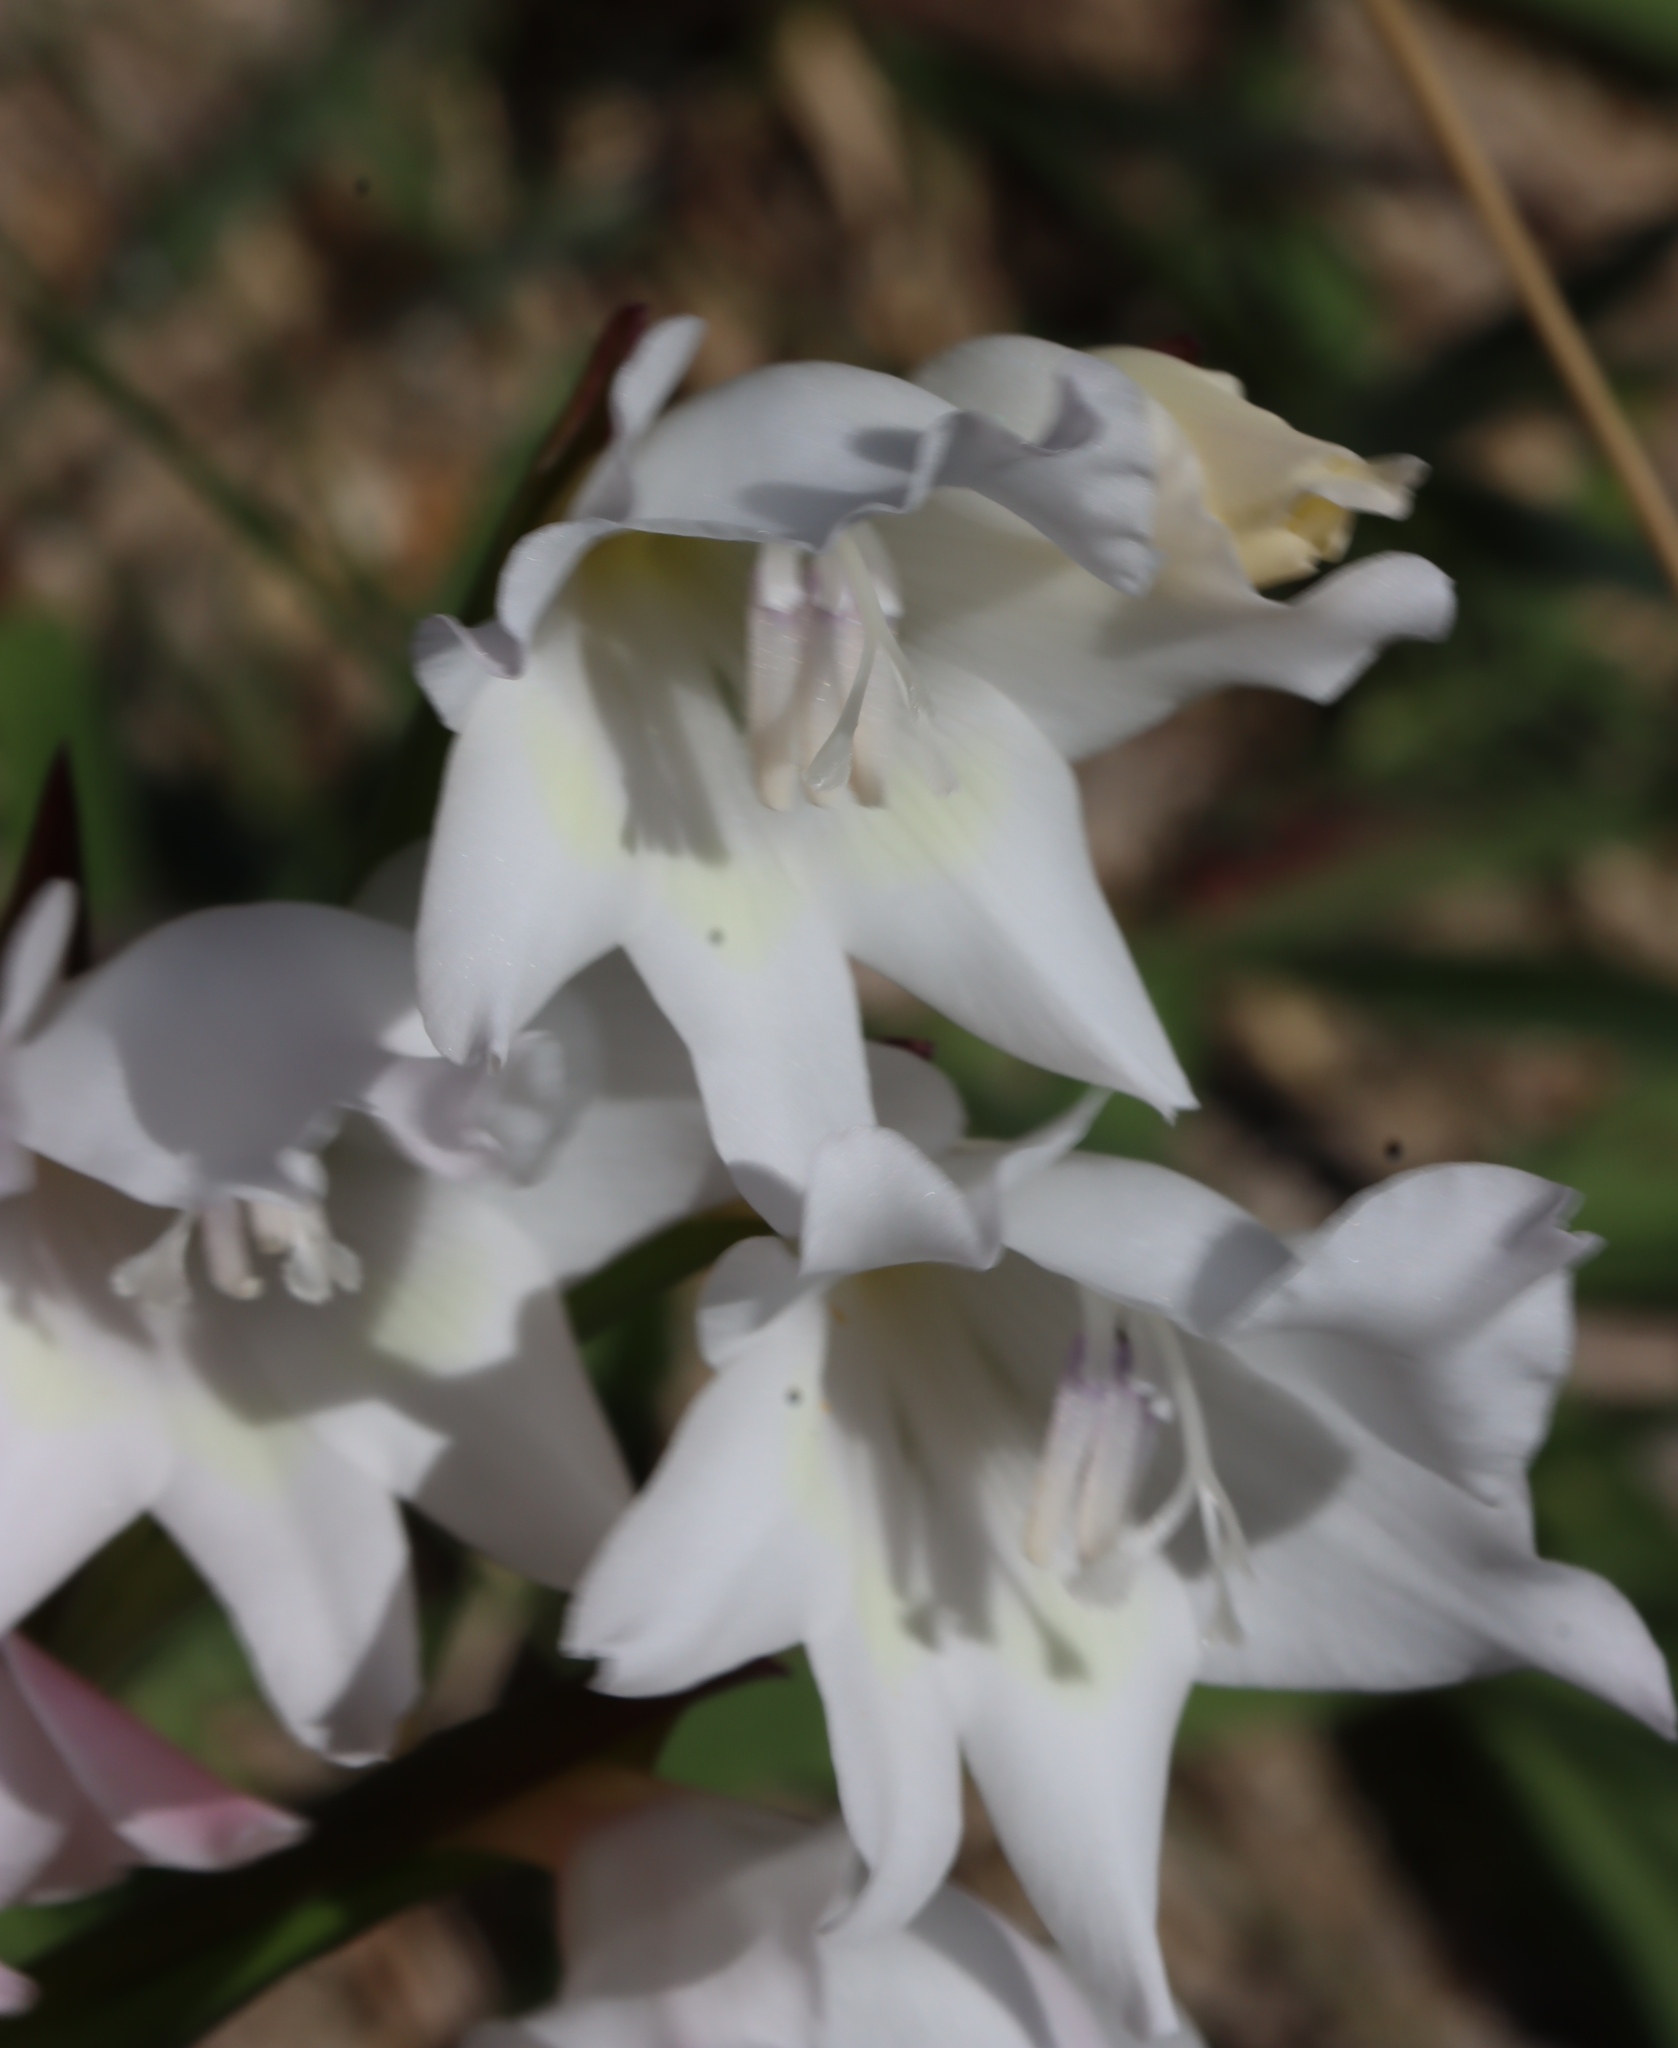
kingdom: Plantae
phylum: Tracheophyta
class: Liliopsida
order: Asparagales
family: Iridaceae
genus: Gladiolus
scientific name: Gladiolus carneus
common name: Painted-lady
